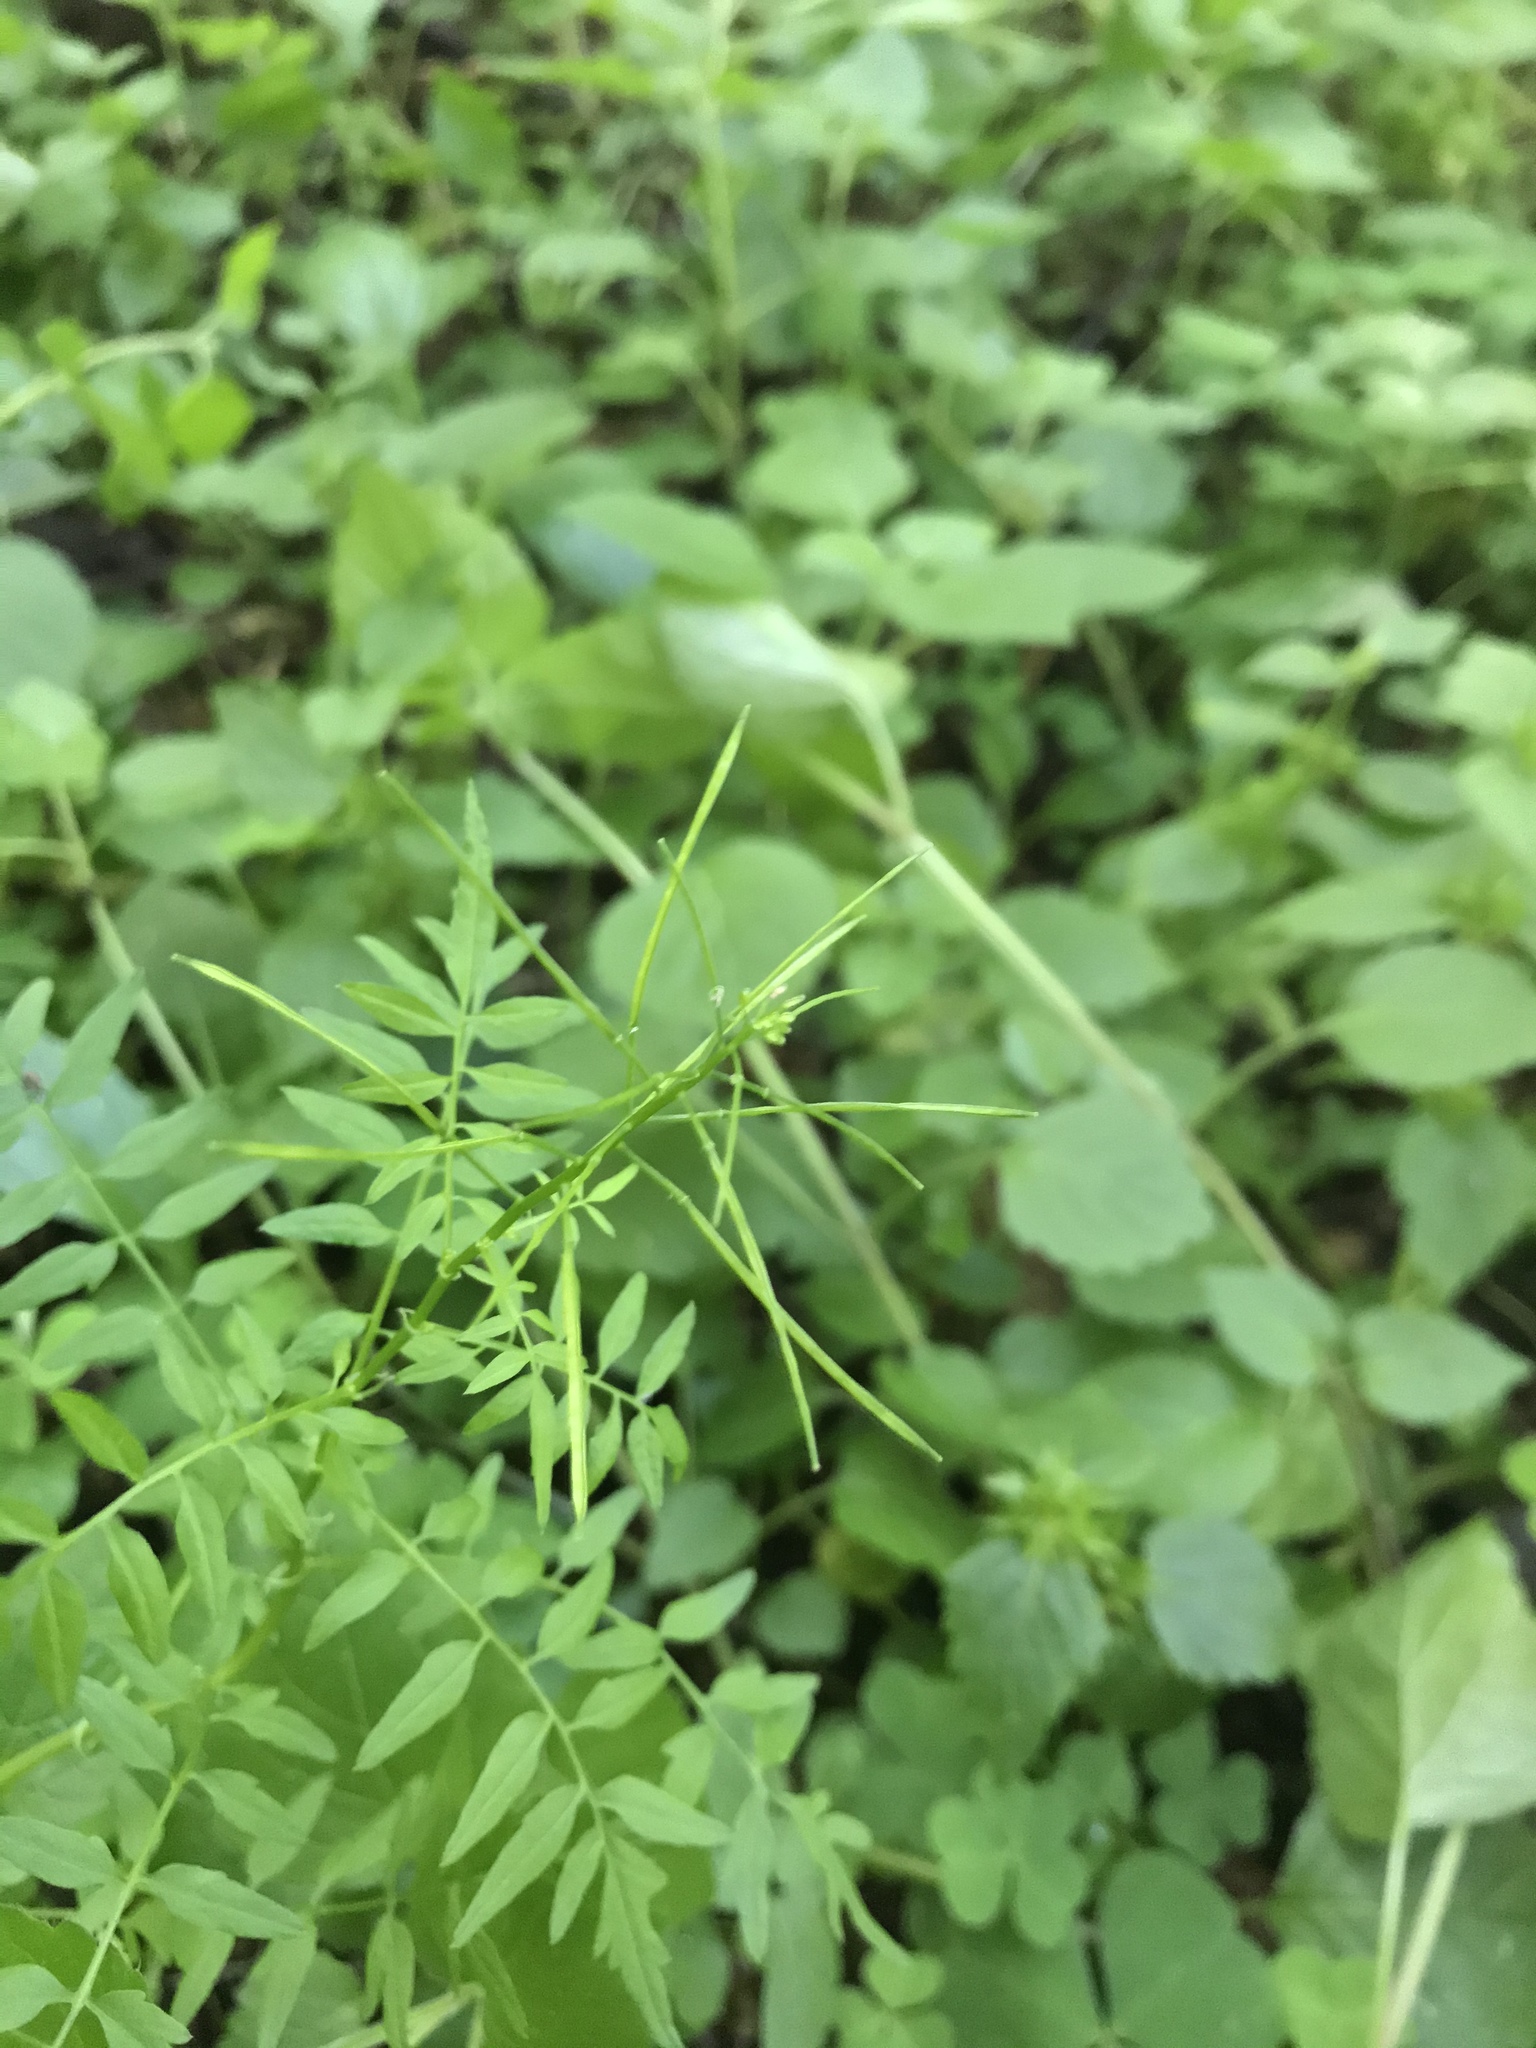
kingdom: Plantae
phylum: Tracheophyta
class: Magnoliopsida
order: Brassicales
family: Brassicaceae
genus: Cardamine
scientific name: Cardamine impatiens
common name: Narrow-leaved bitter-cress
